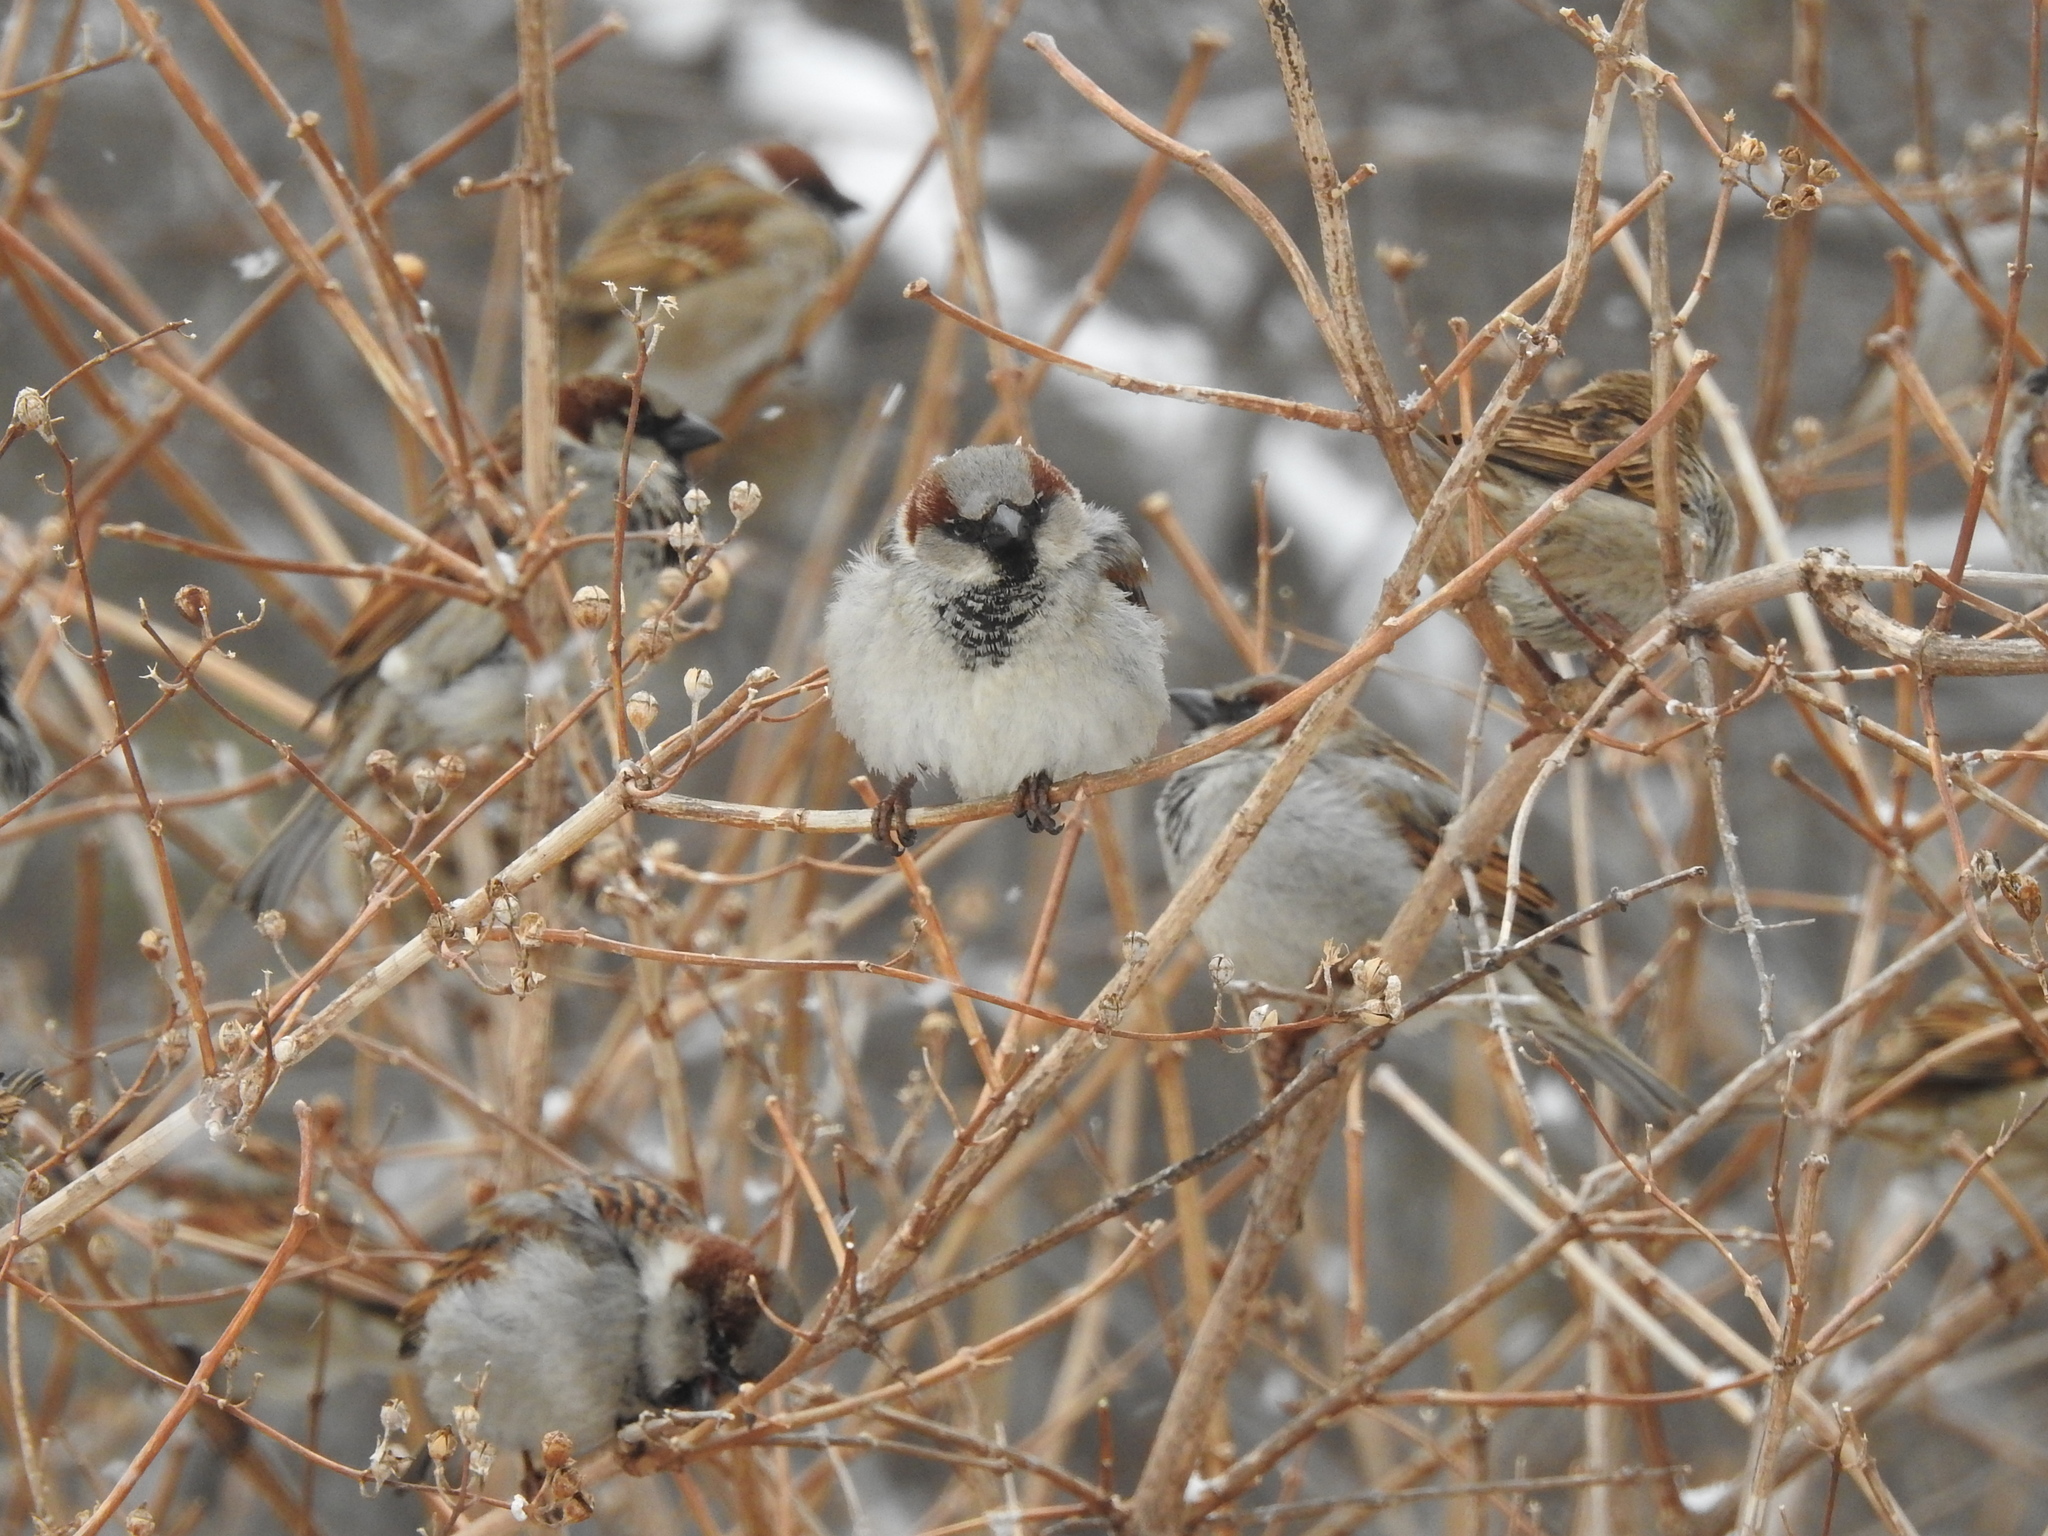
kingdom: Animalia
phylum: Chordata
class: Aves
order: Passeriformes
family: Passeridae
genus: Passer
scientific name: Passer domesticus
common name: House sparrow
